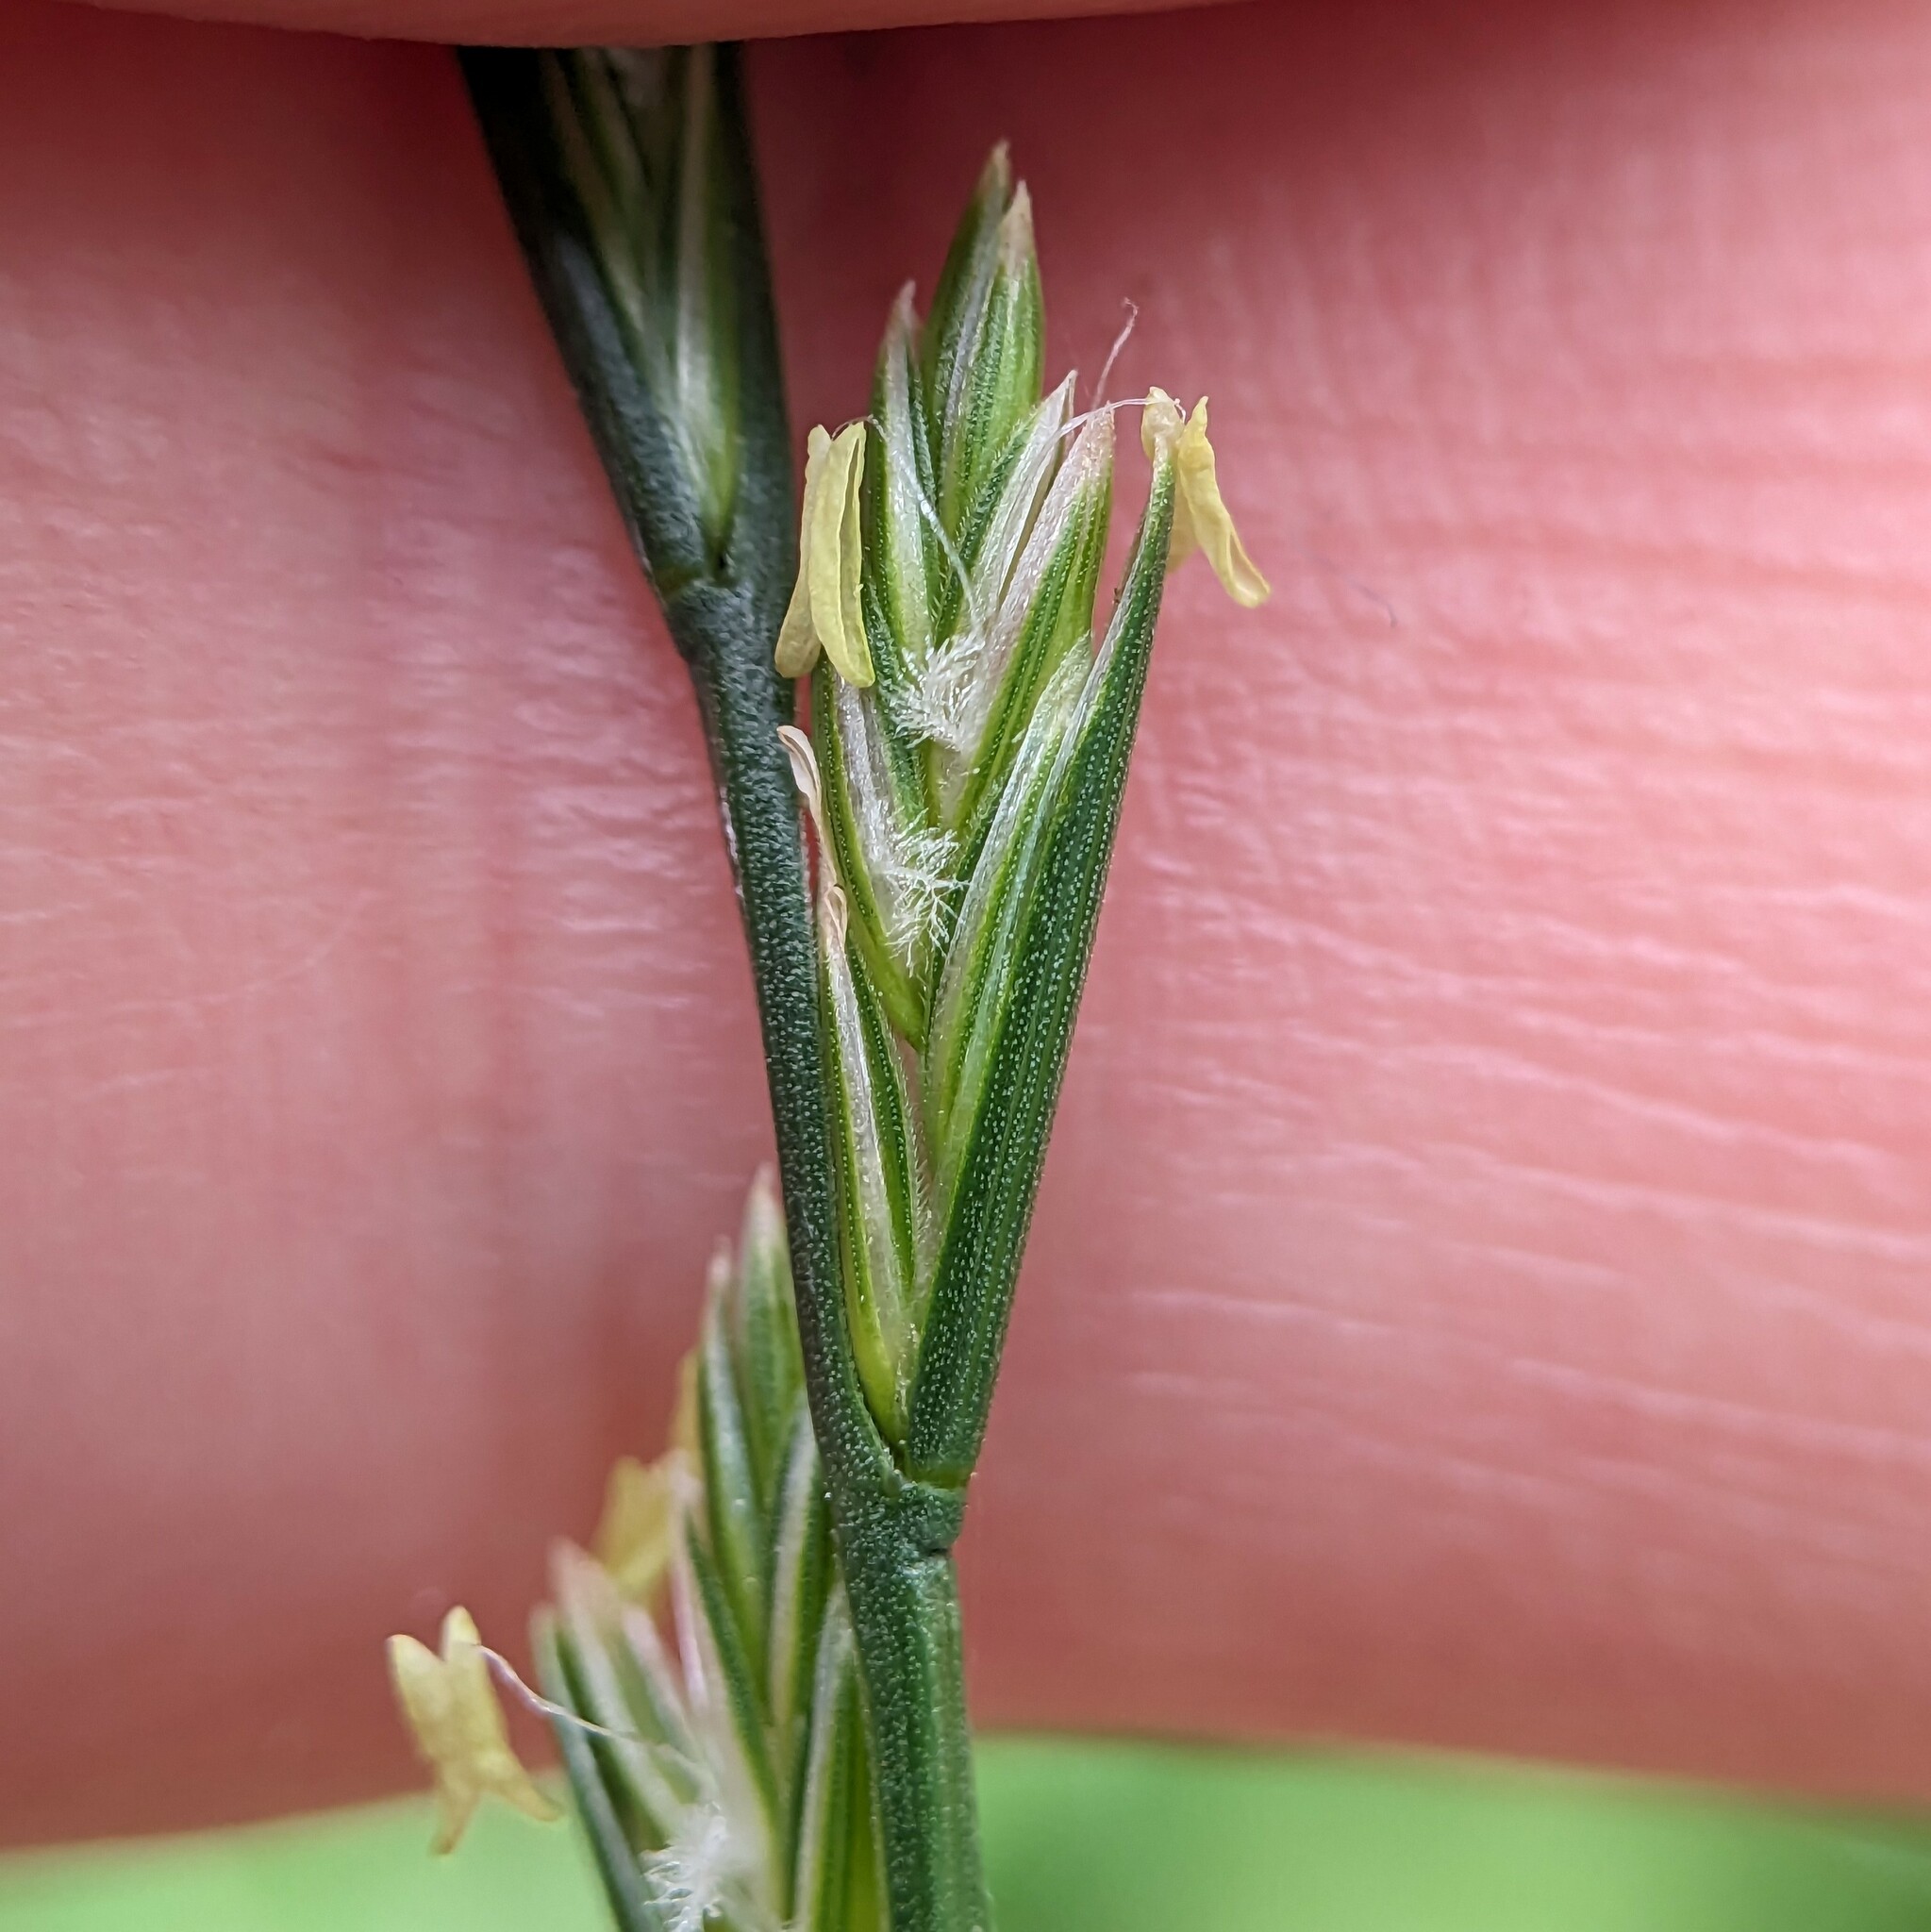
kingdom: Plantae
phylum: Tracheophyta
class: Liliopsida
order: Poales
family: Poaceae
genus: Lolium
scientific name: Lolium perenne
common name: Perennial ryegrass
